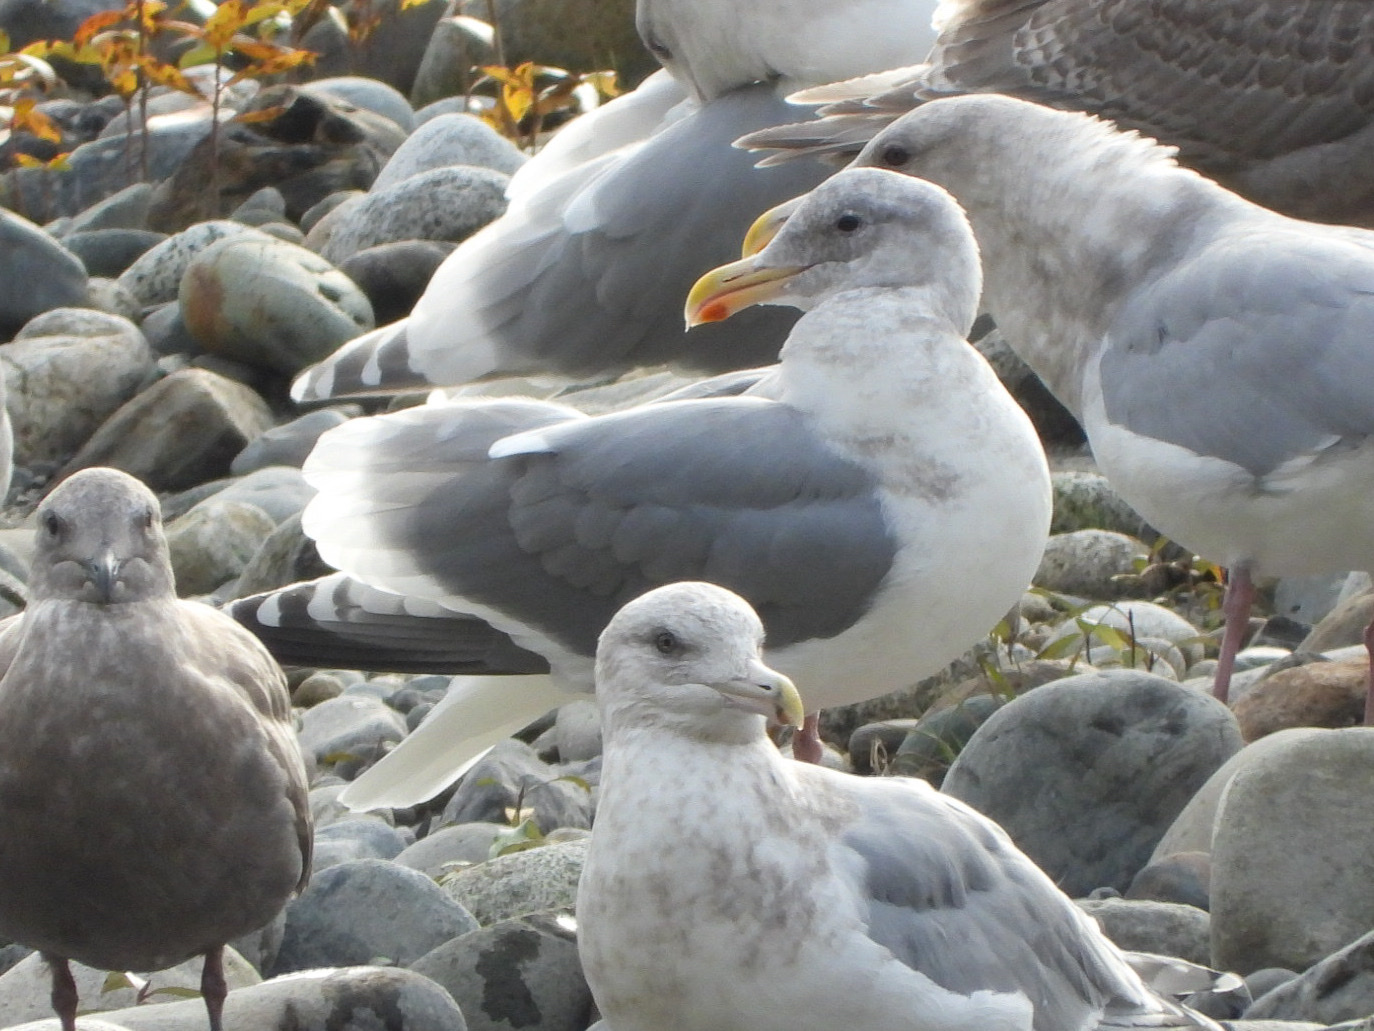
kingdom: Animalia
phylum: Chordata
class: Aves
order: Charadriiformes
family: Laridae
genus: Larus
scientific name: Larus
